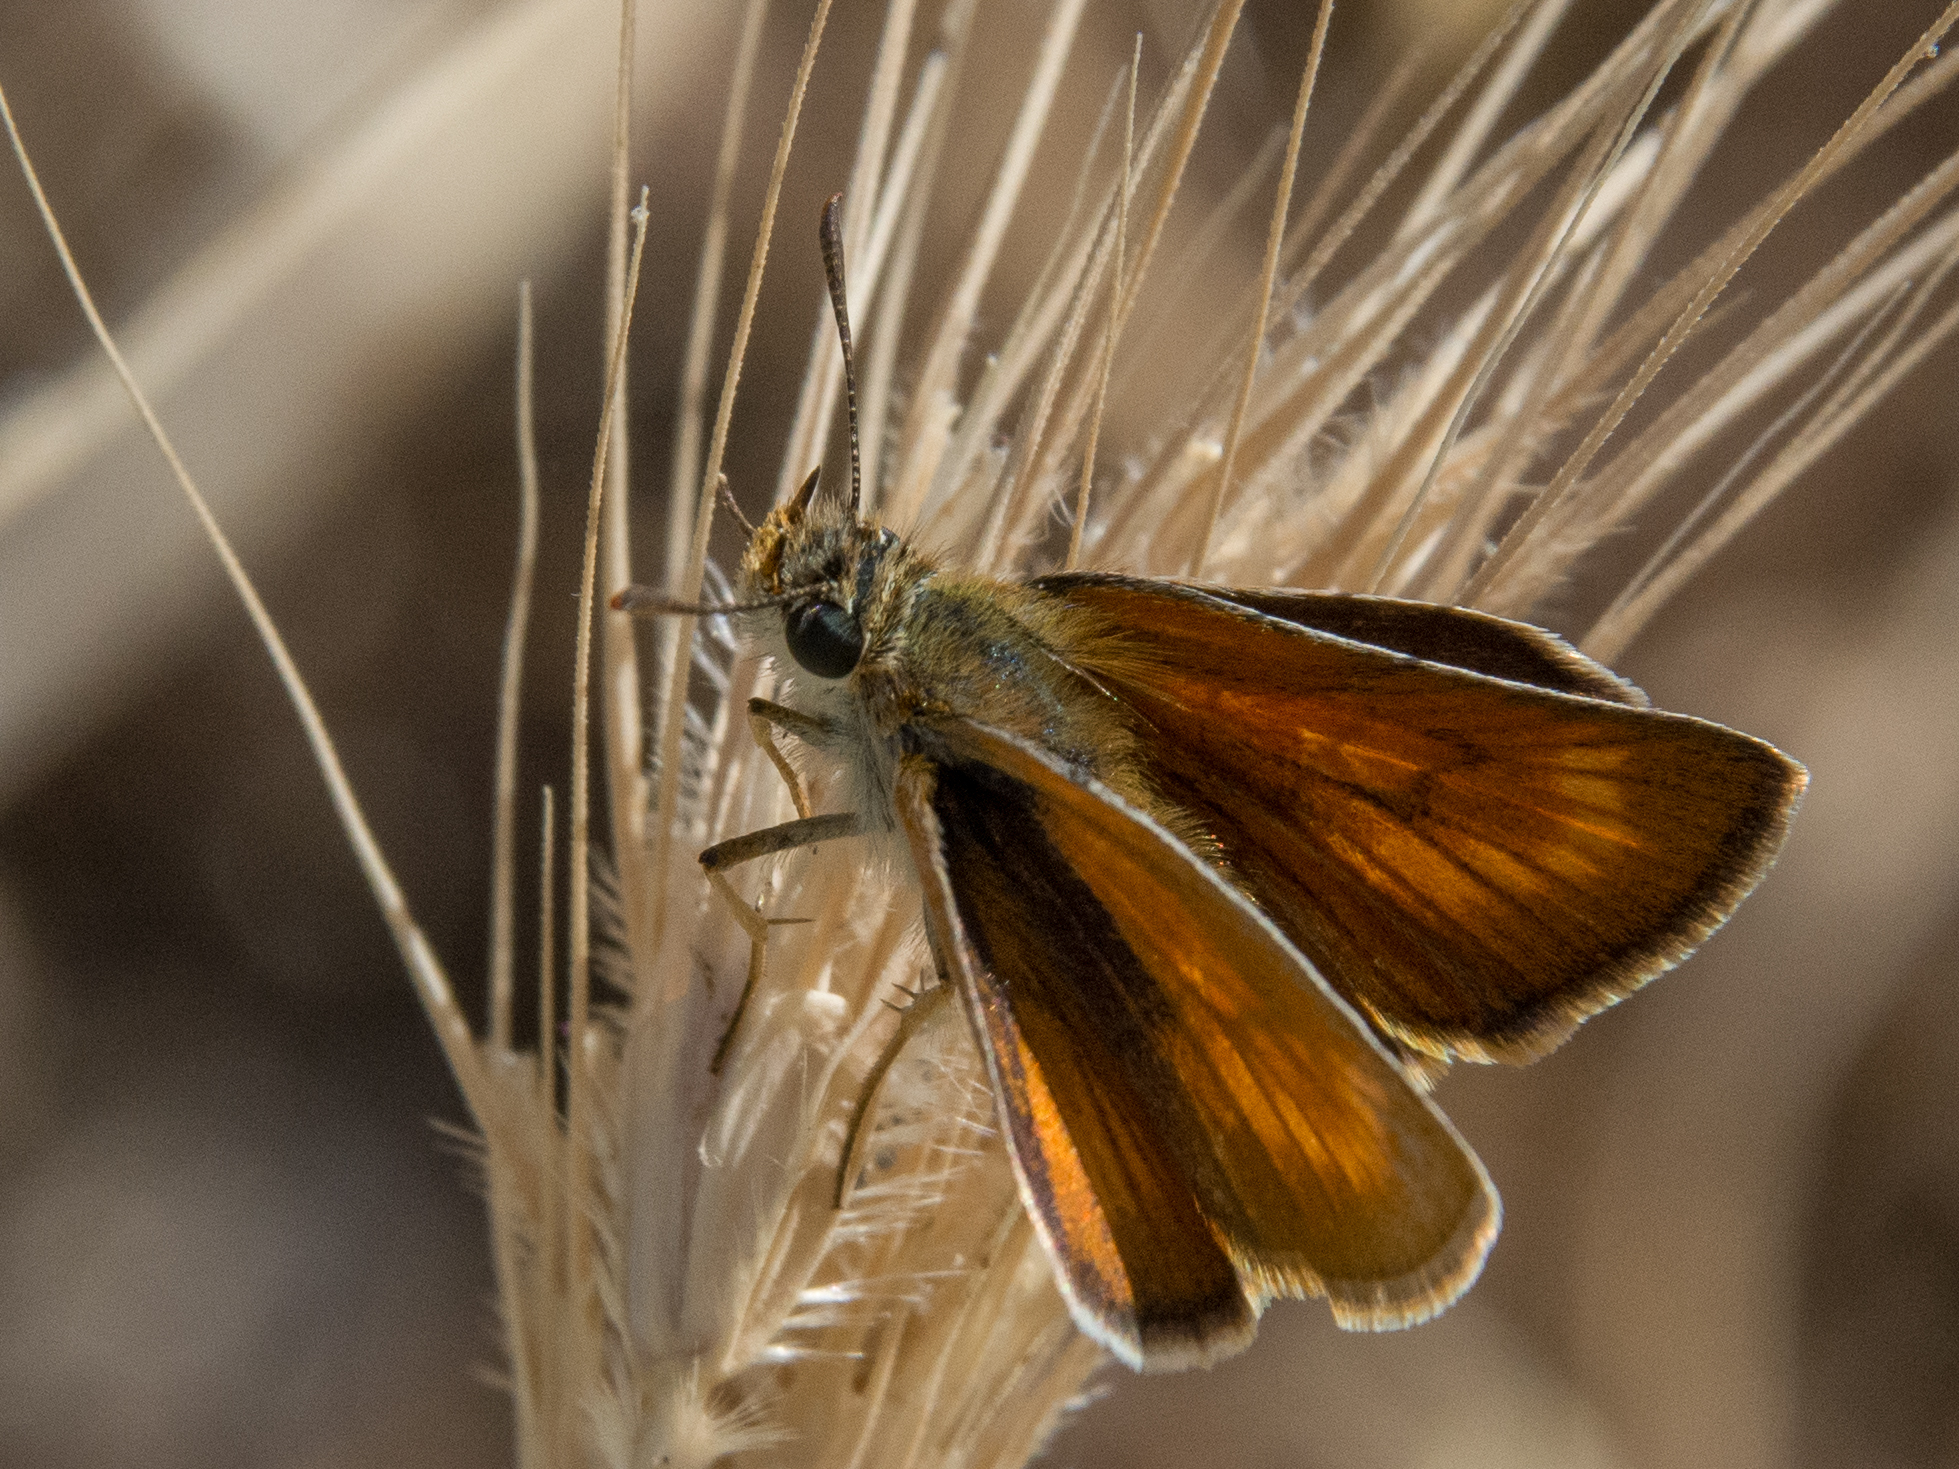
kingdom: Animalia
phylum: Arthropoda
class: Insecta
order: Lepidoptera
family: Hesperiidae
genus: Thymelicus
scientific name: Thymelicus acteon
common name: Lulworth skipper
